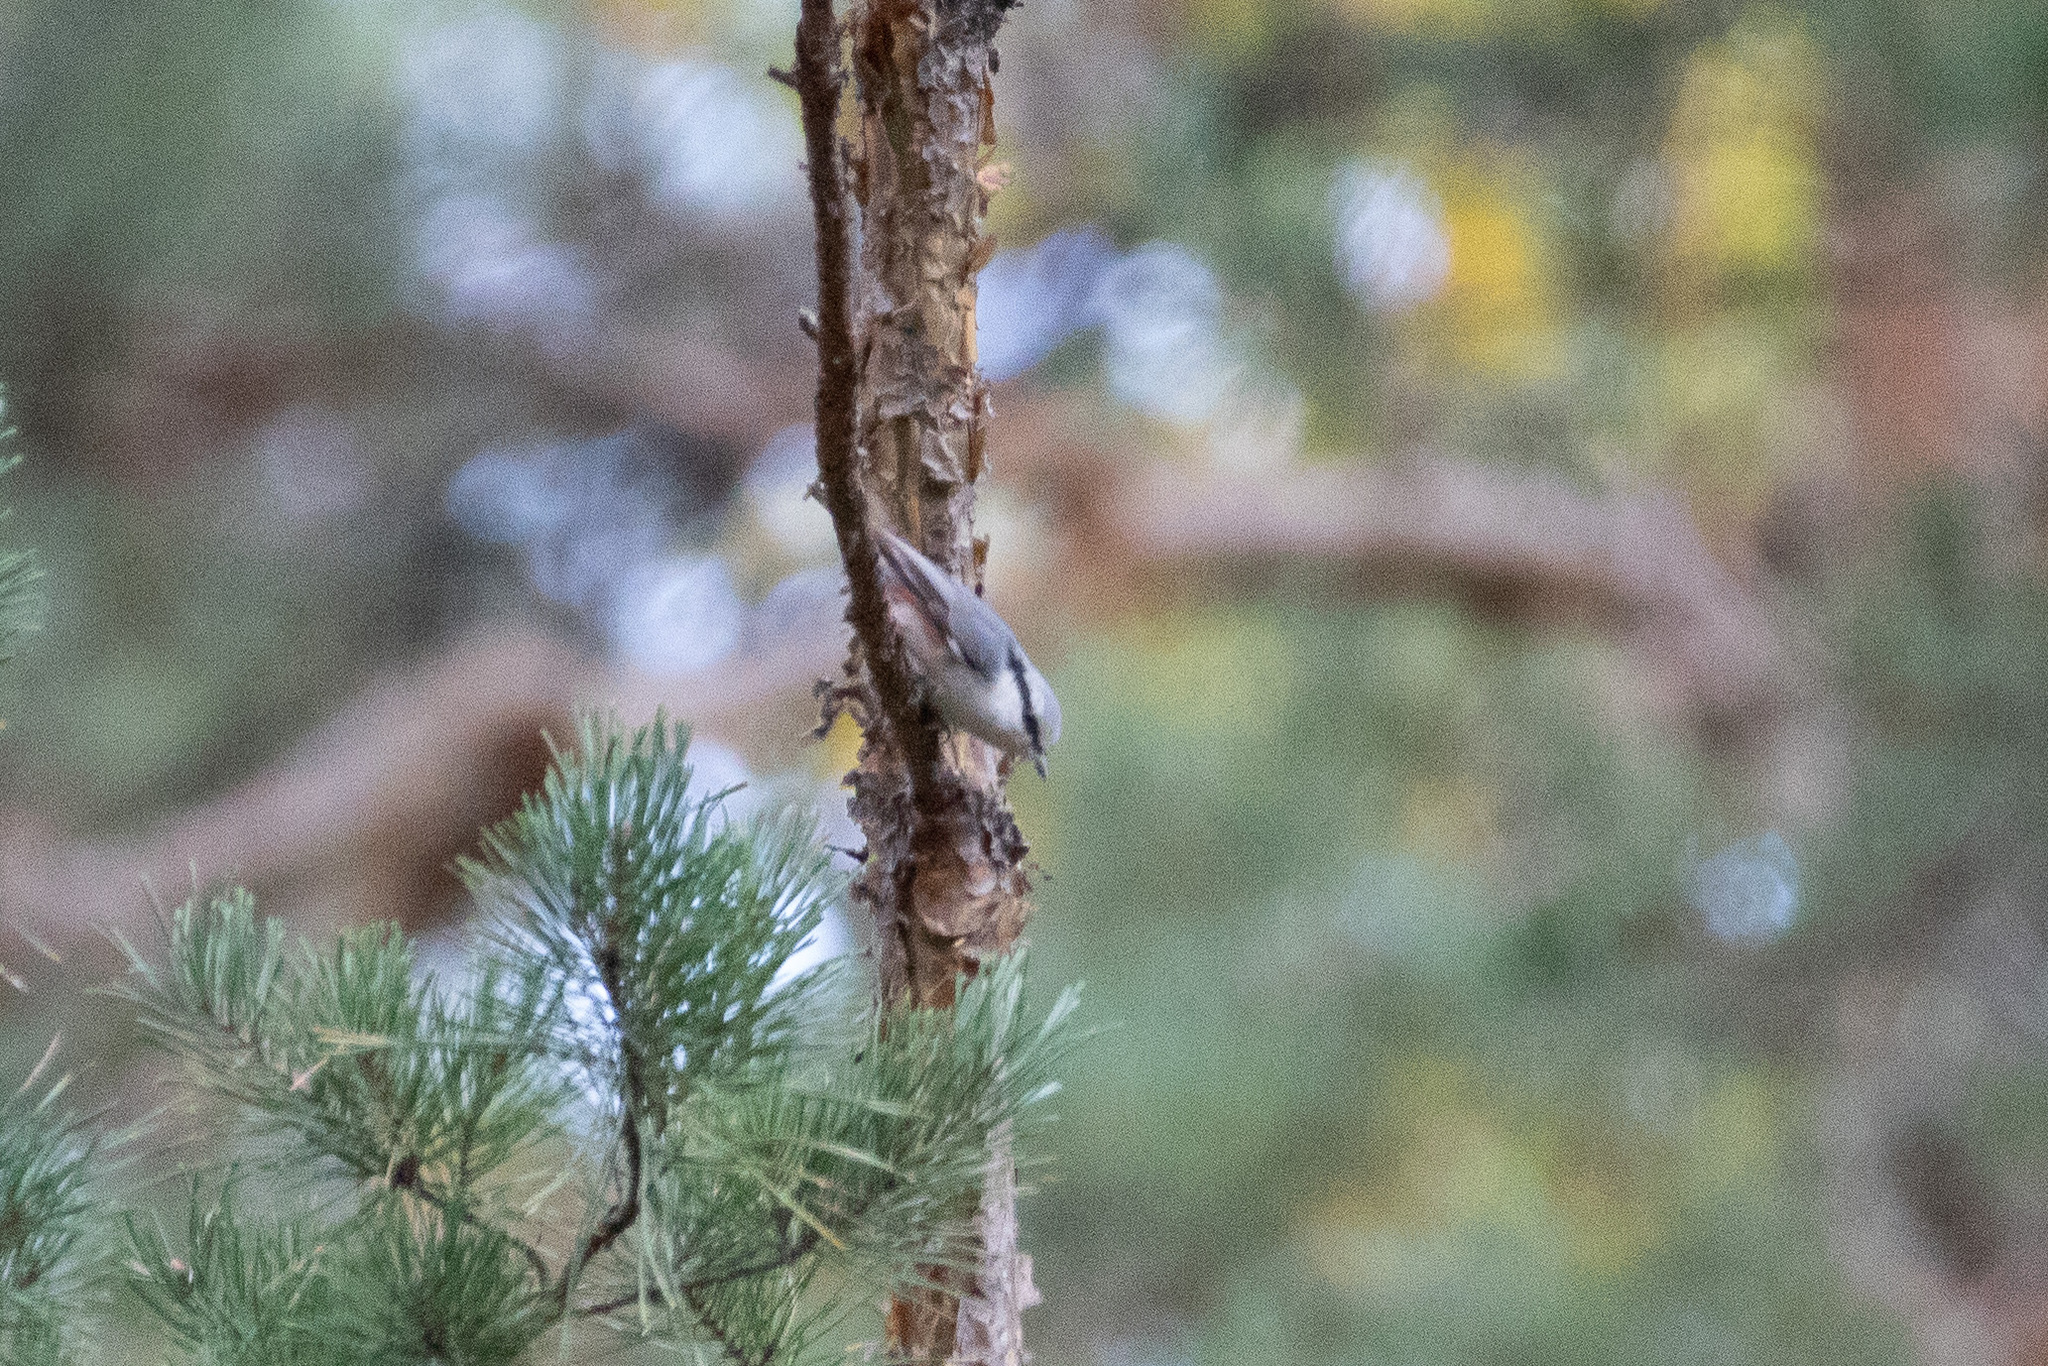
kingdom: Animalia
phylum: Chordata
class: Aves
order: Passeriformes
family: Sittidae
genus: Sitta
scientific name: Sitta europaea
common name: Eurasian nuthatch
